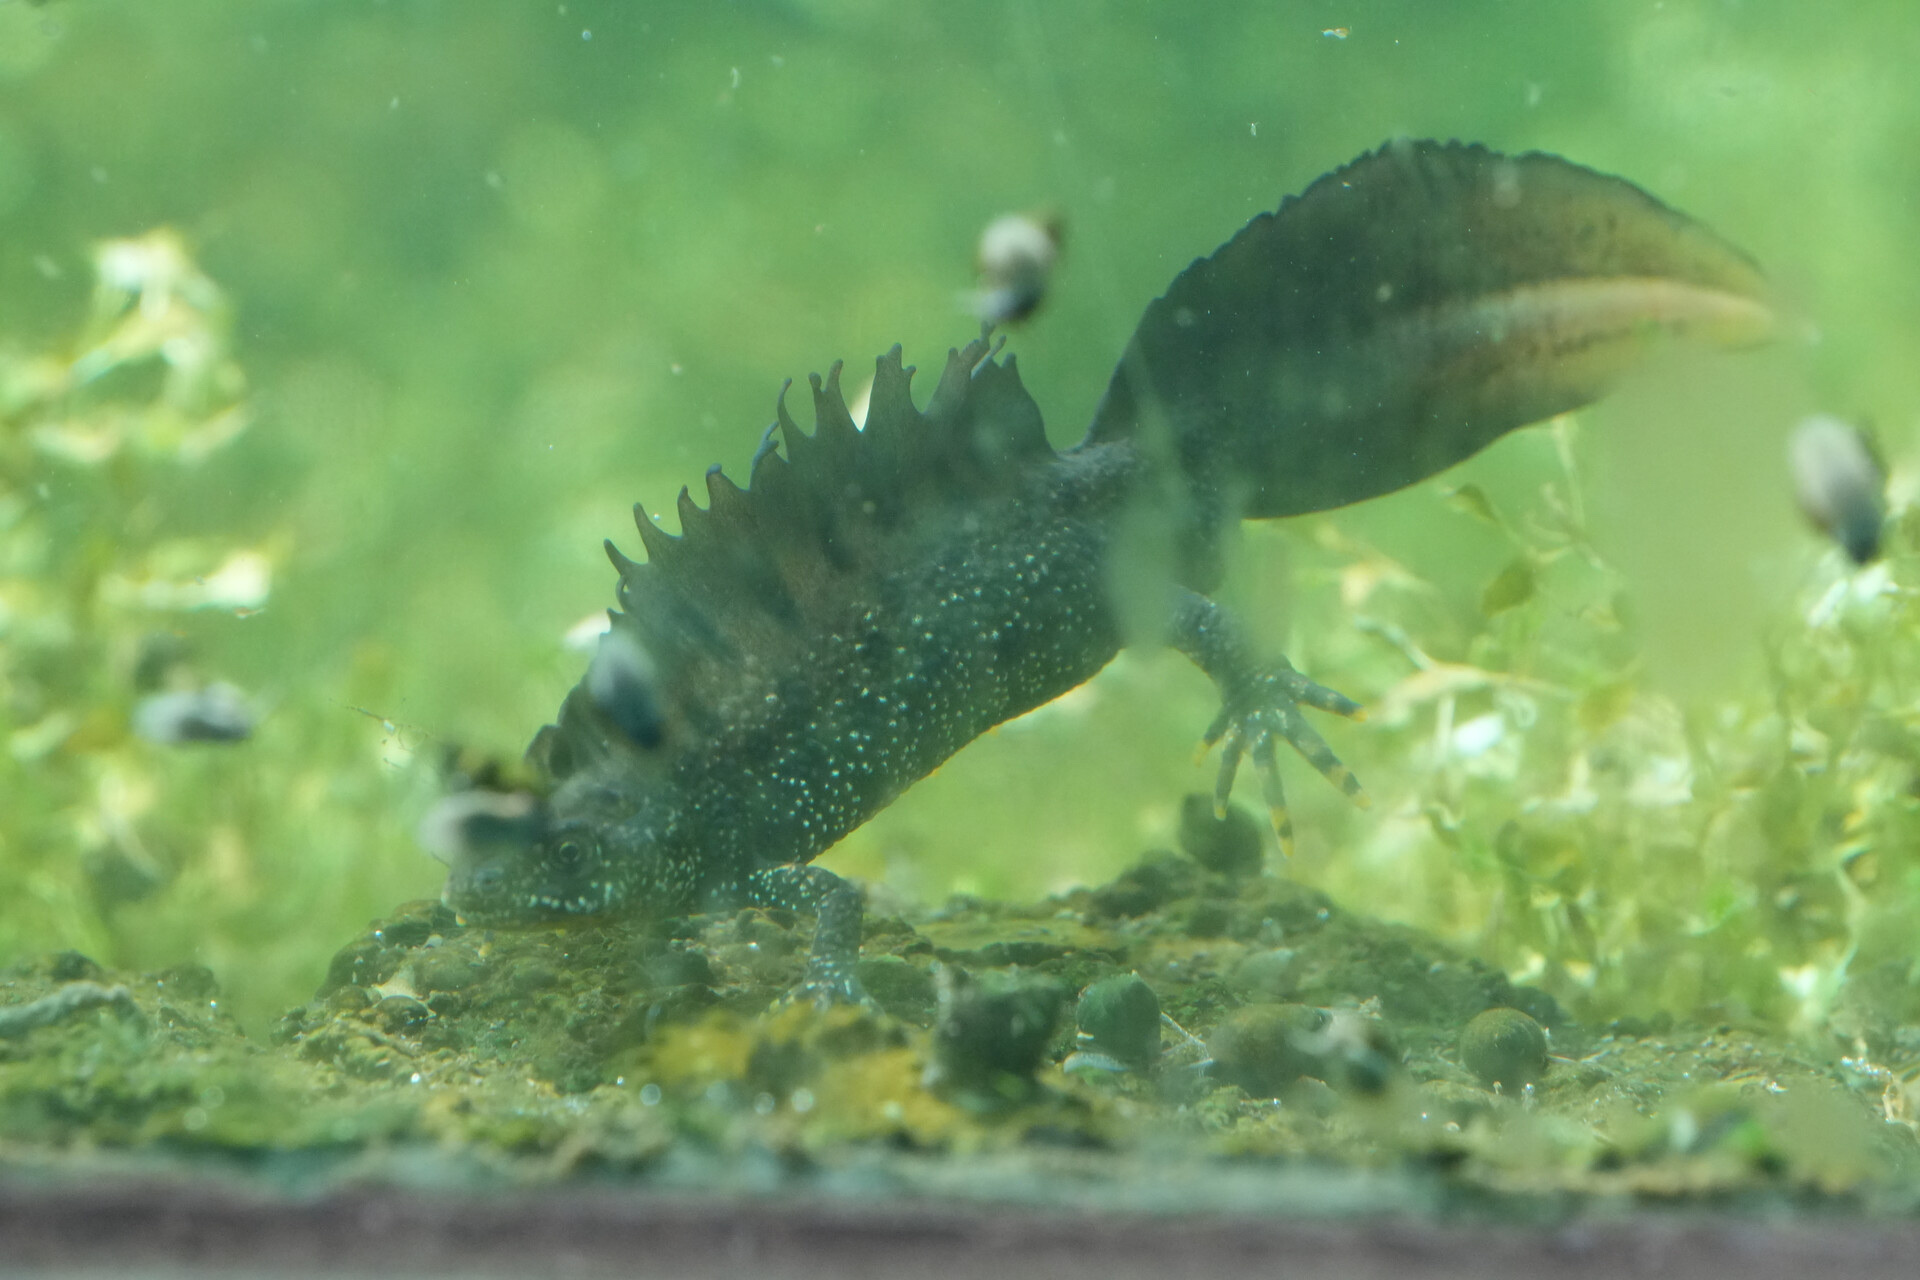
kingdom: Animalia
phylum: Chordata
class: Amphibia
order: Caudata
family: Salamandridae
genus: Triturus
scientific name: Triturus cristatus
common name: Crested newt
